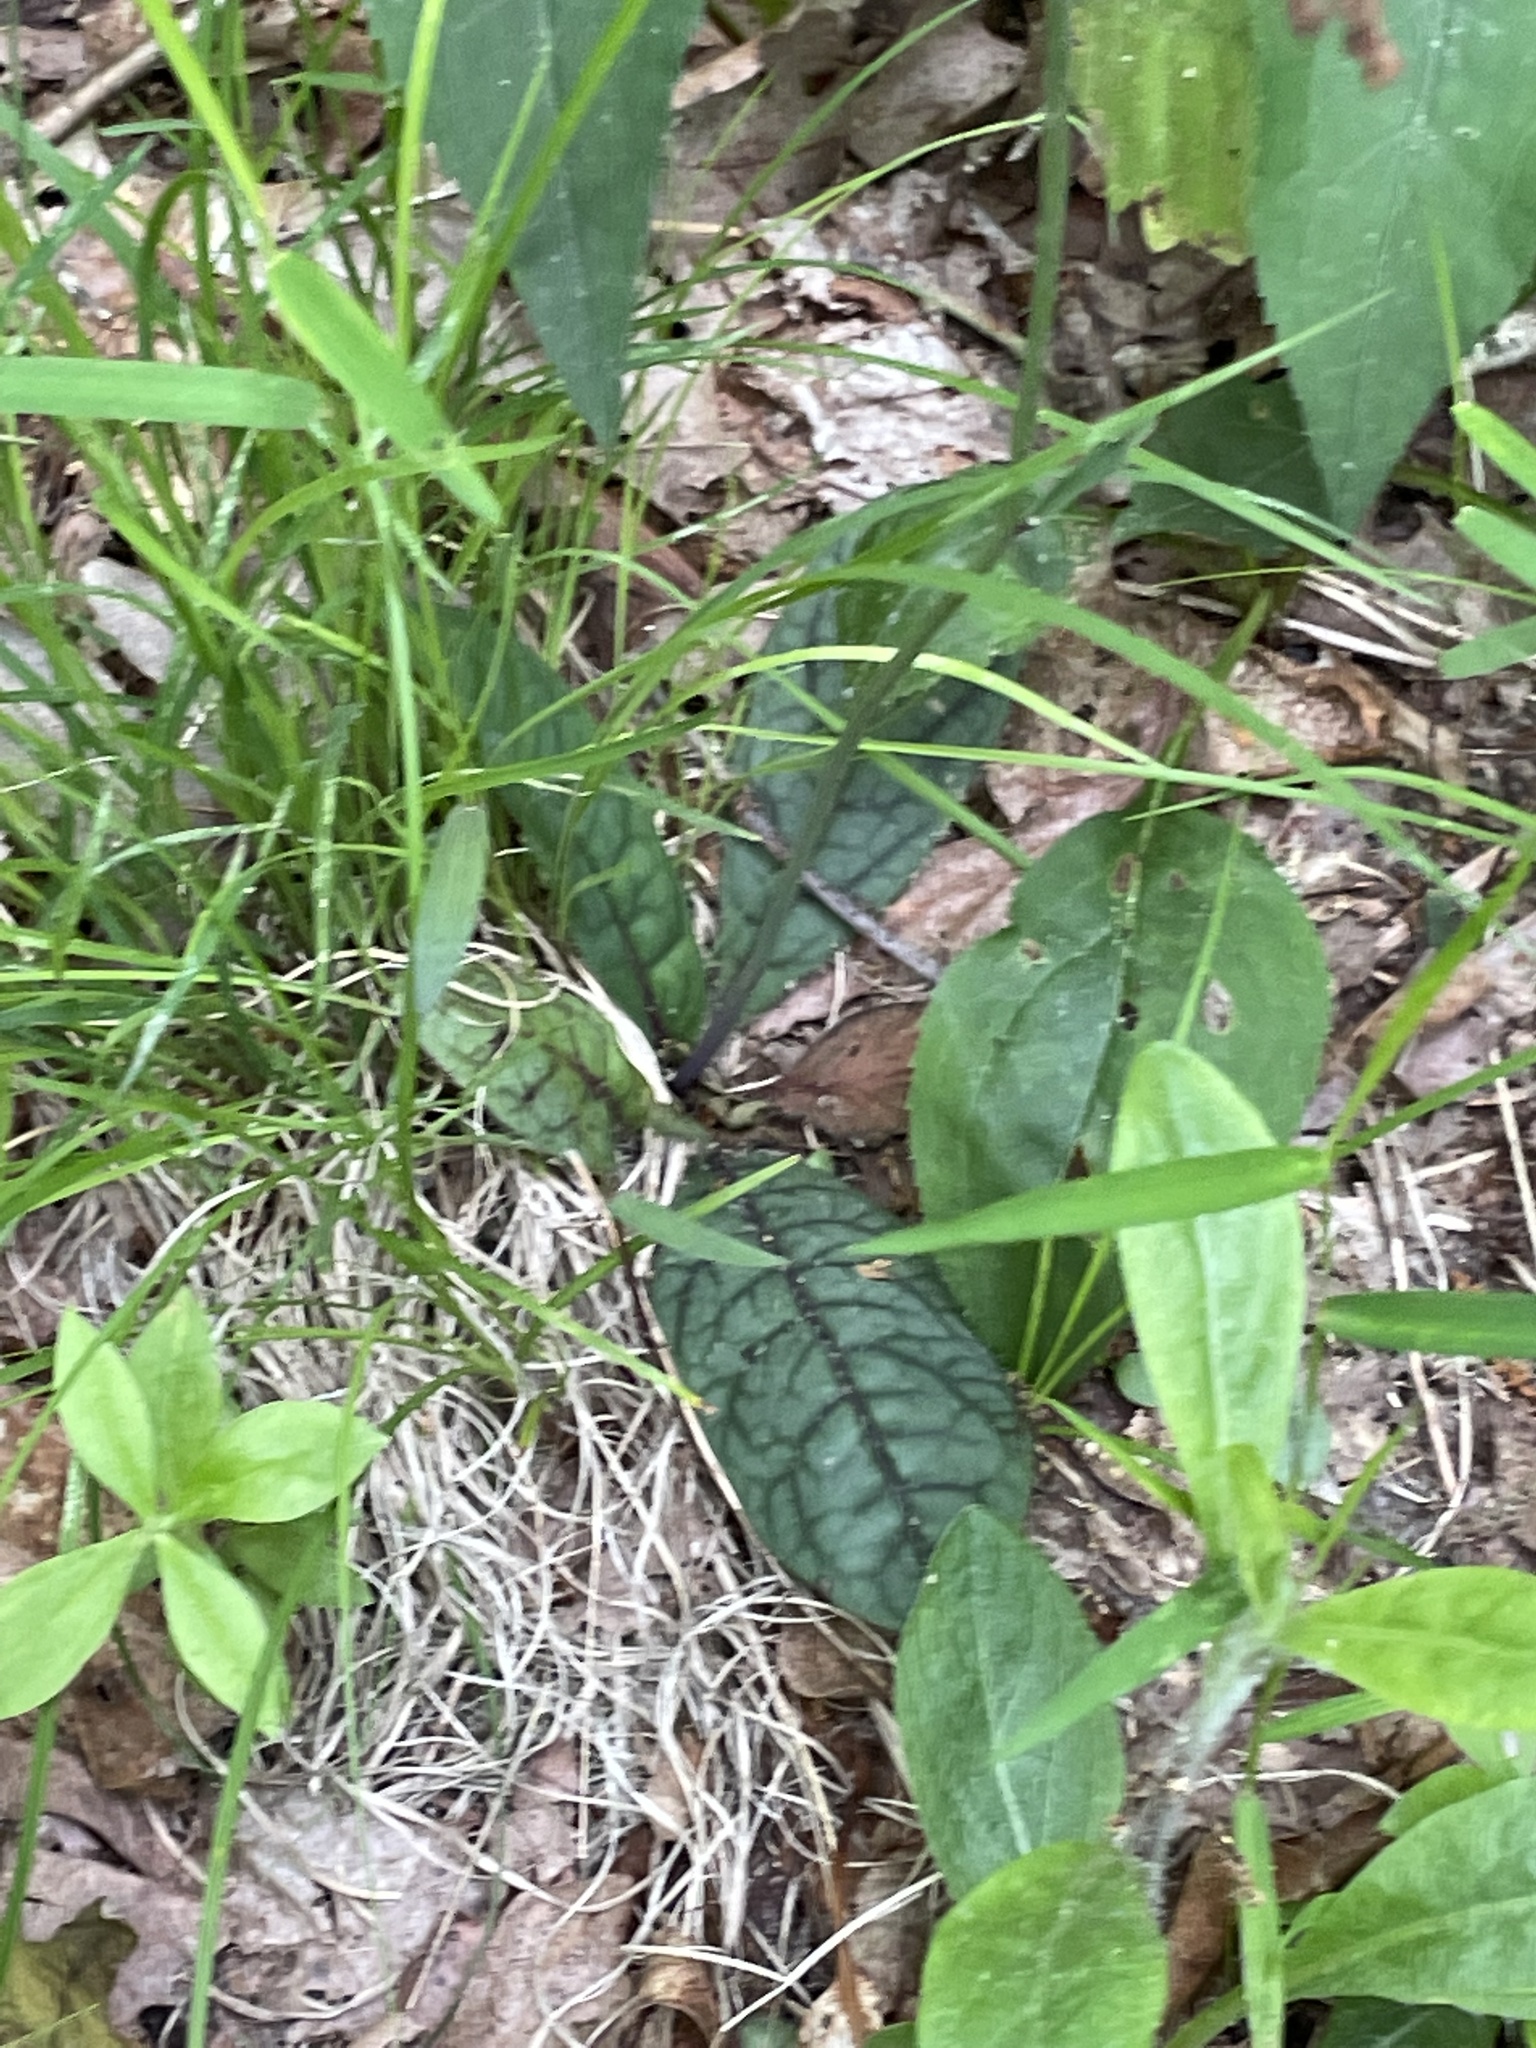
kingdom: Plantae
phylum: Tracheophyta
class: Magnoliopsida
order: Asterales
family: Asteraceae
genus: Hieracium
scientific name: Hieracium venosum
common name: Rattlesnake hawkweed
